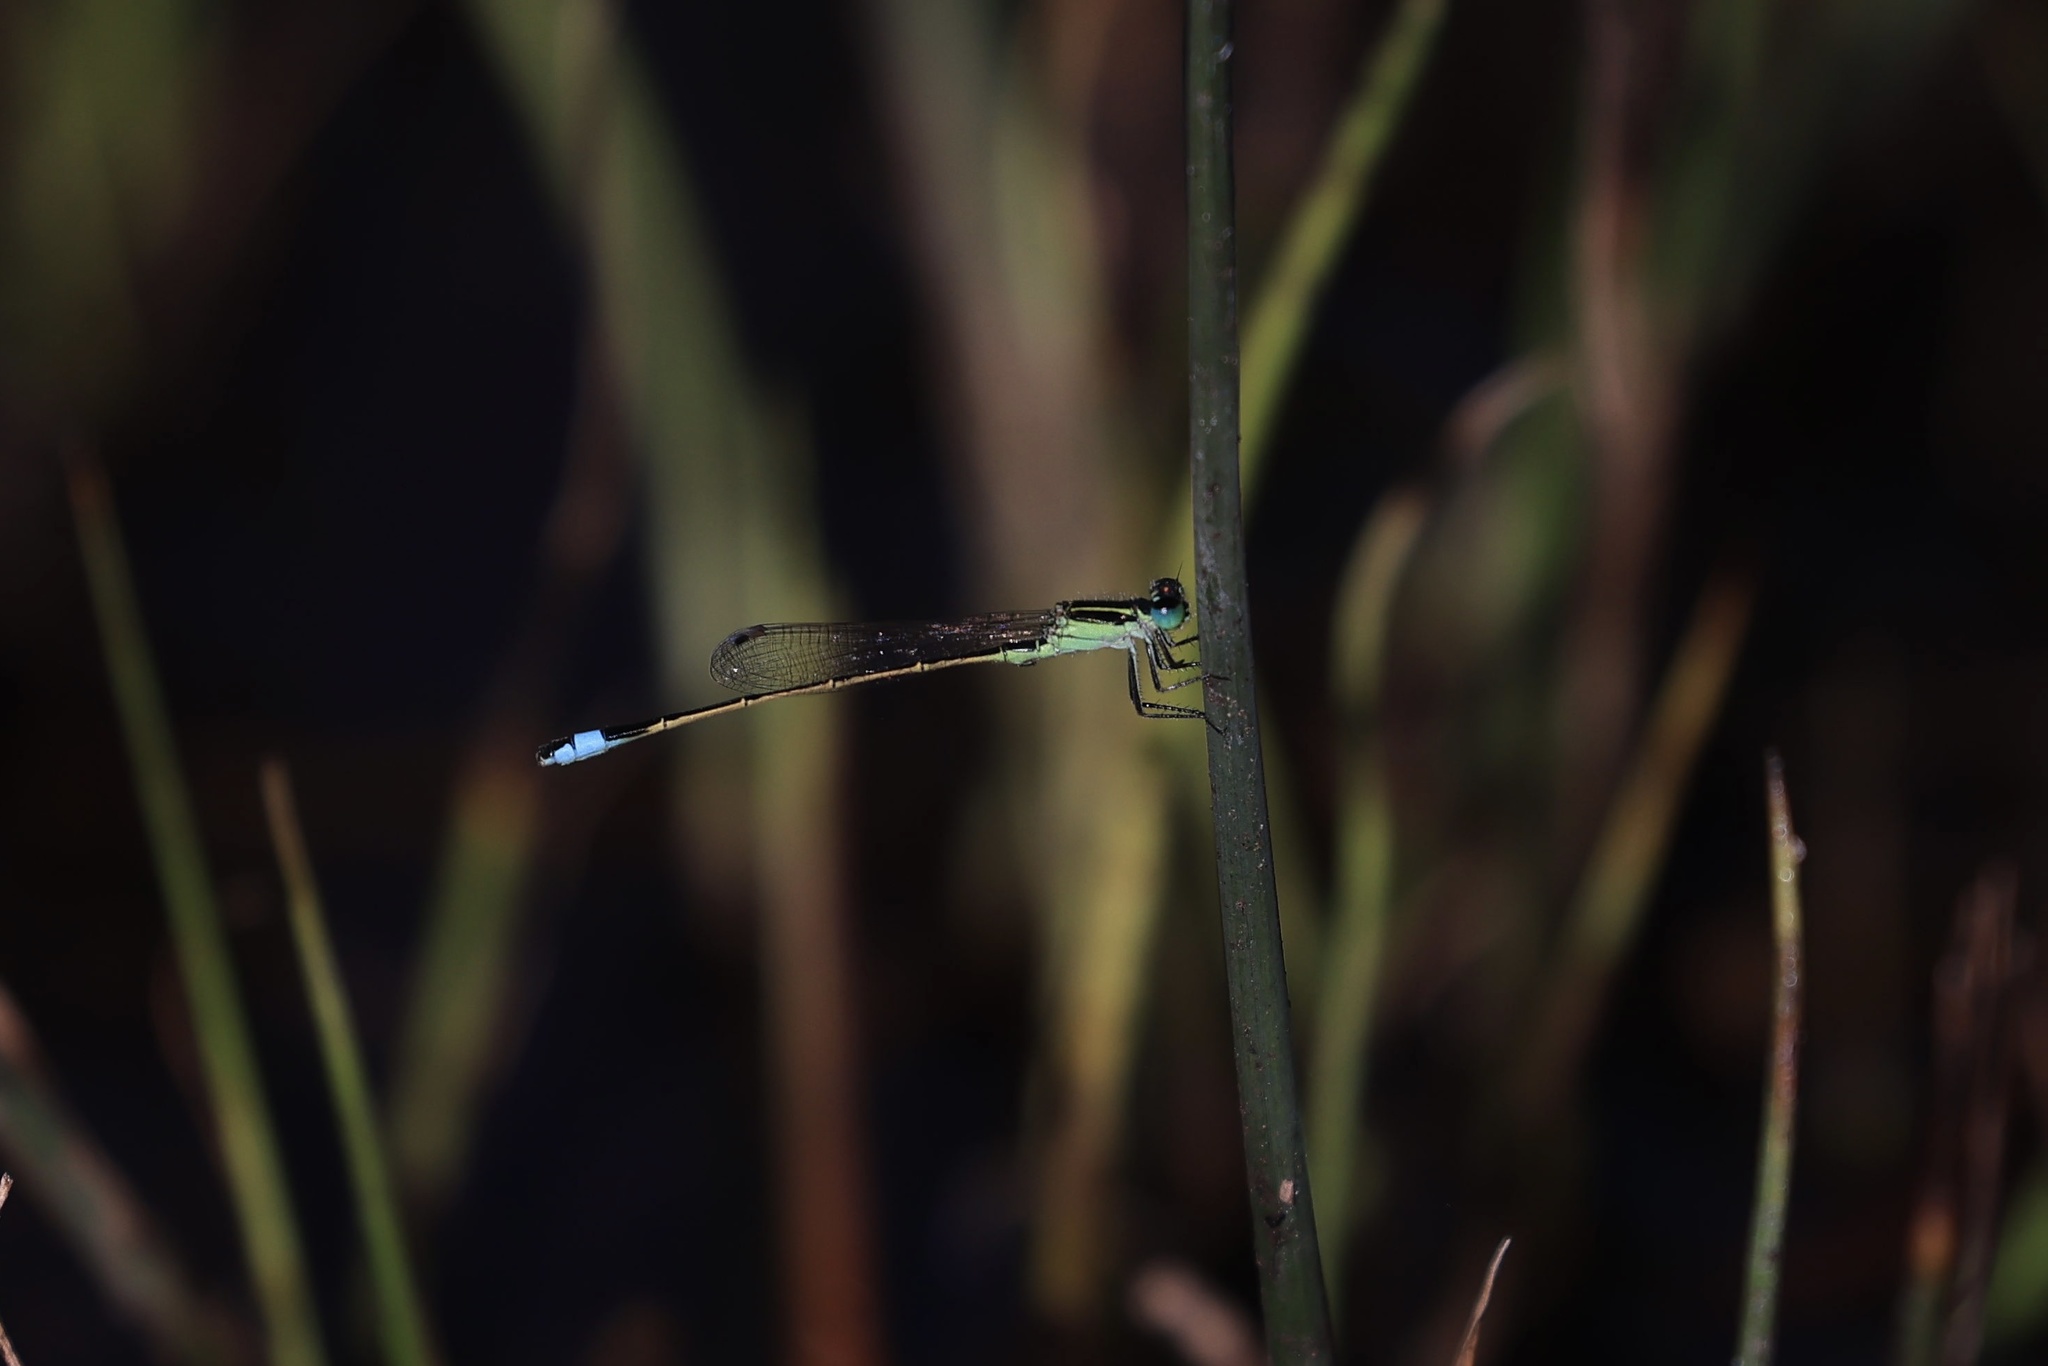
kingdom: Animalia
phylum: Arthropoda
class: Insecta
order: Odonata
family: Coenagrionidae
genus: Ischnura
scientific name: Ischnura ramburii
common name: Rambur's forktail
